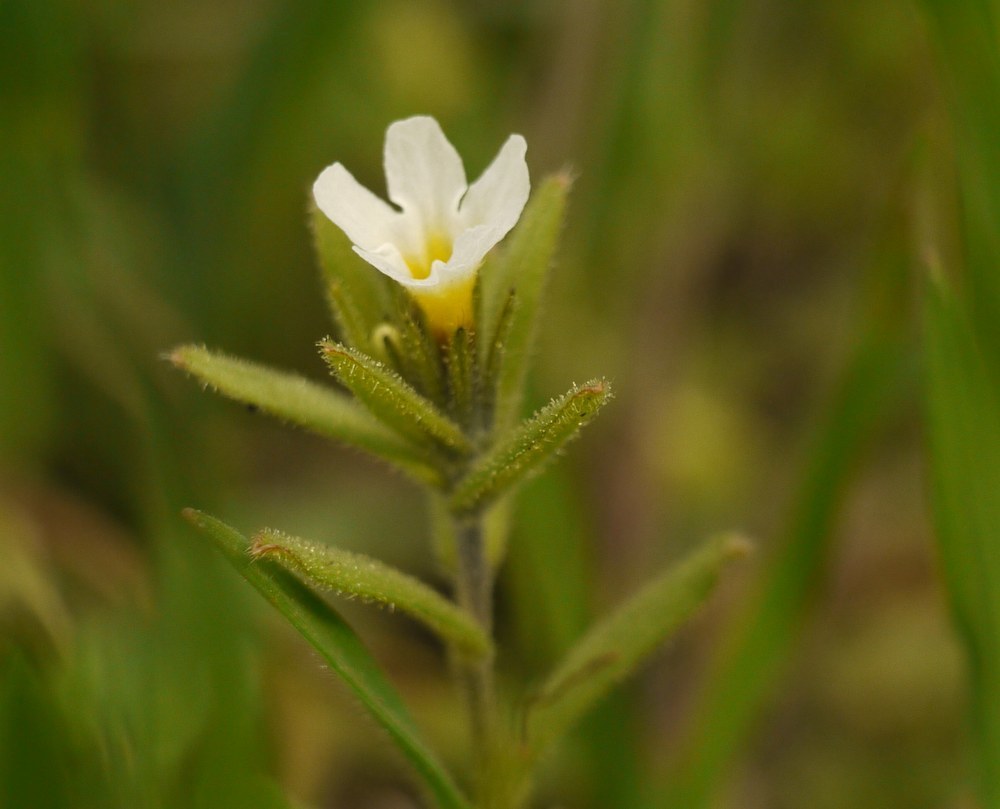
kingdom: Plantae
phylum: Tracheophyta
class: Magnoliopsida
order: Boraginales
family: Boraginaceae
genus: Buglossoides
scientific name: Buglossoides arvensis
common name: Corn gromwell
